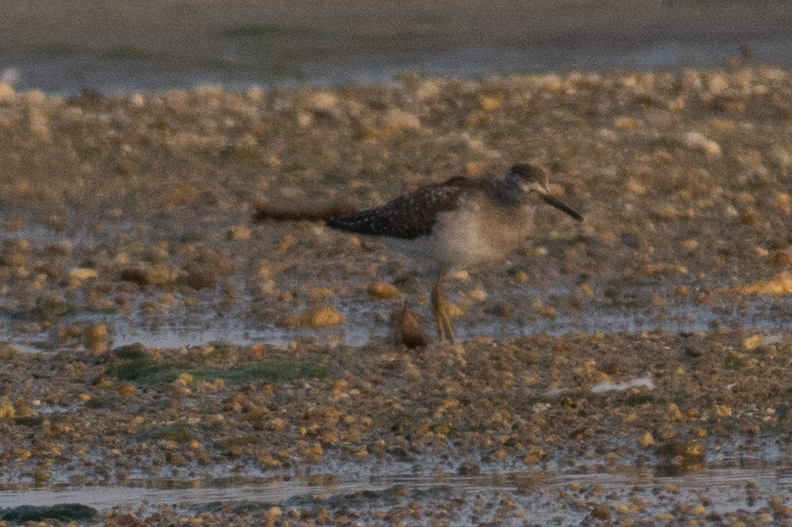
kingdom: Animalia
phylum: Chordata
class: Aves
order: Charadriiformes
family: Scolopacidae
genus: Tringa
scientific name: Tringa glareola
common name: Wood sandpiper
